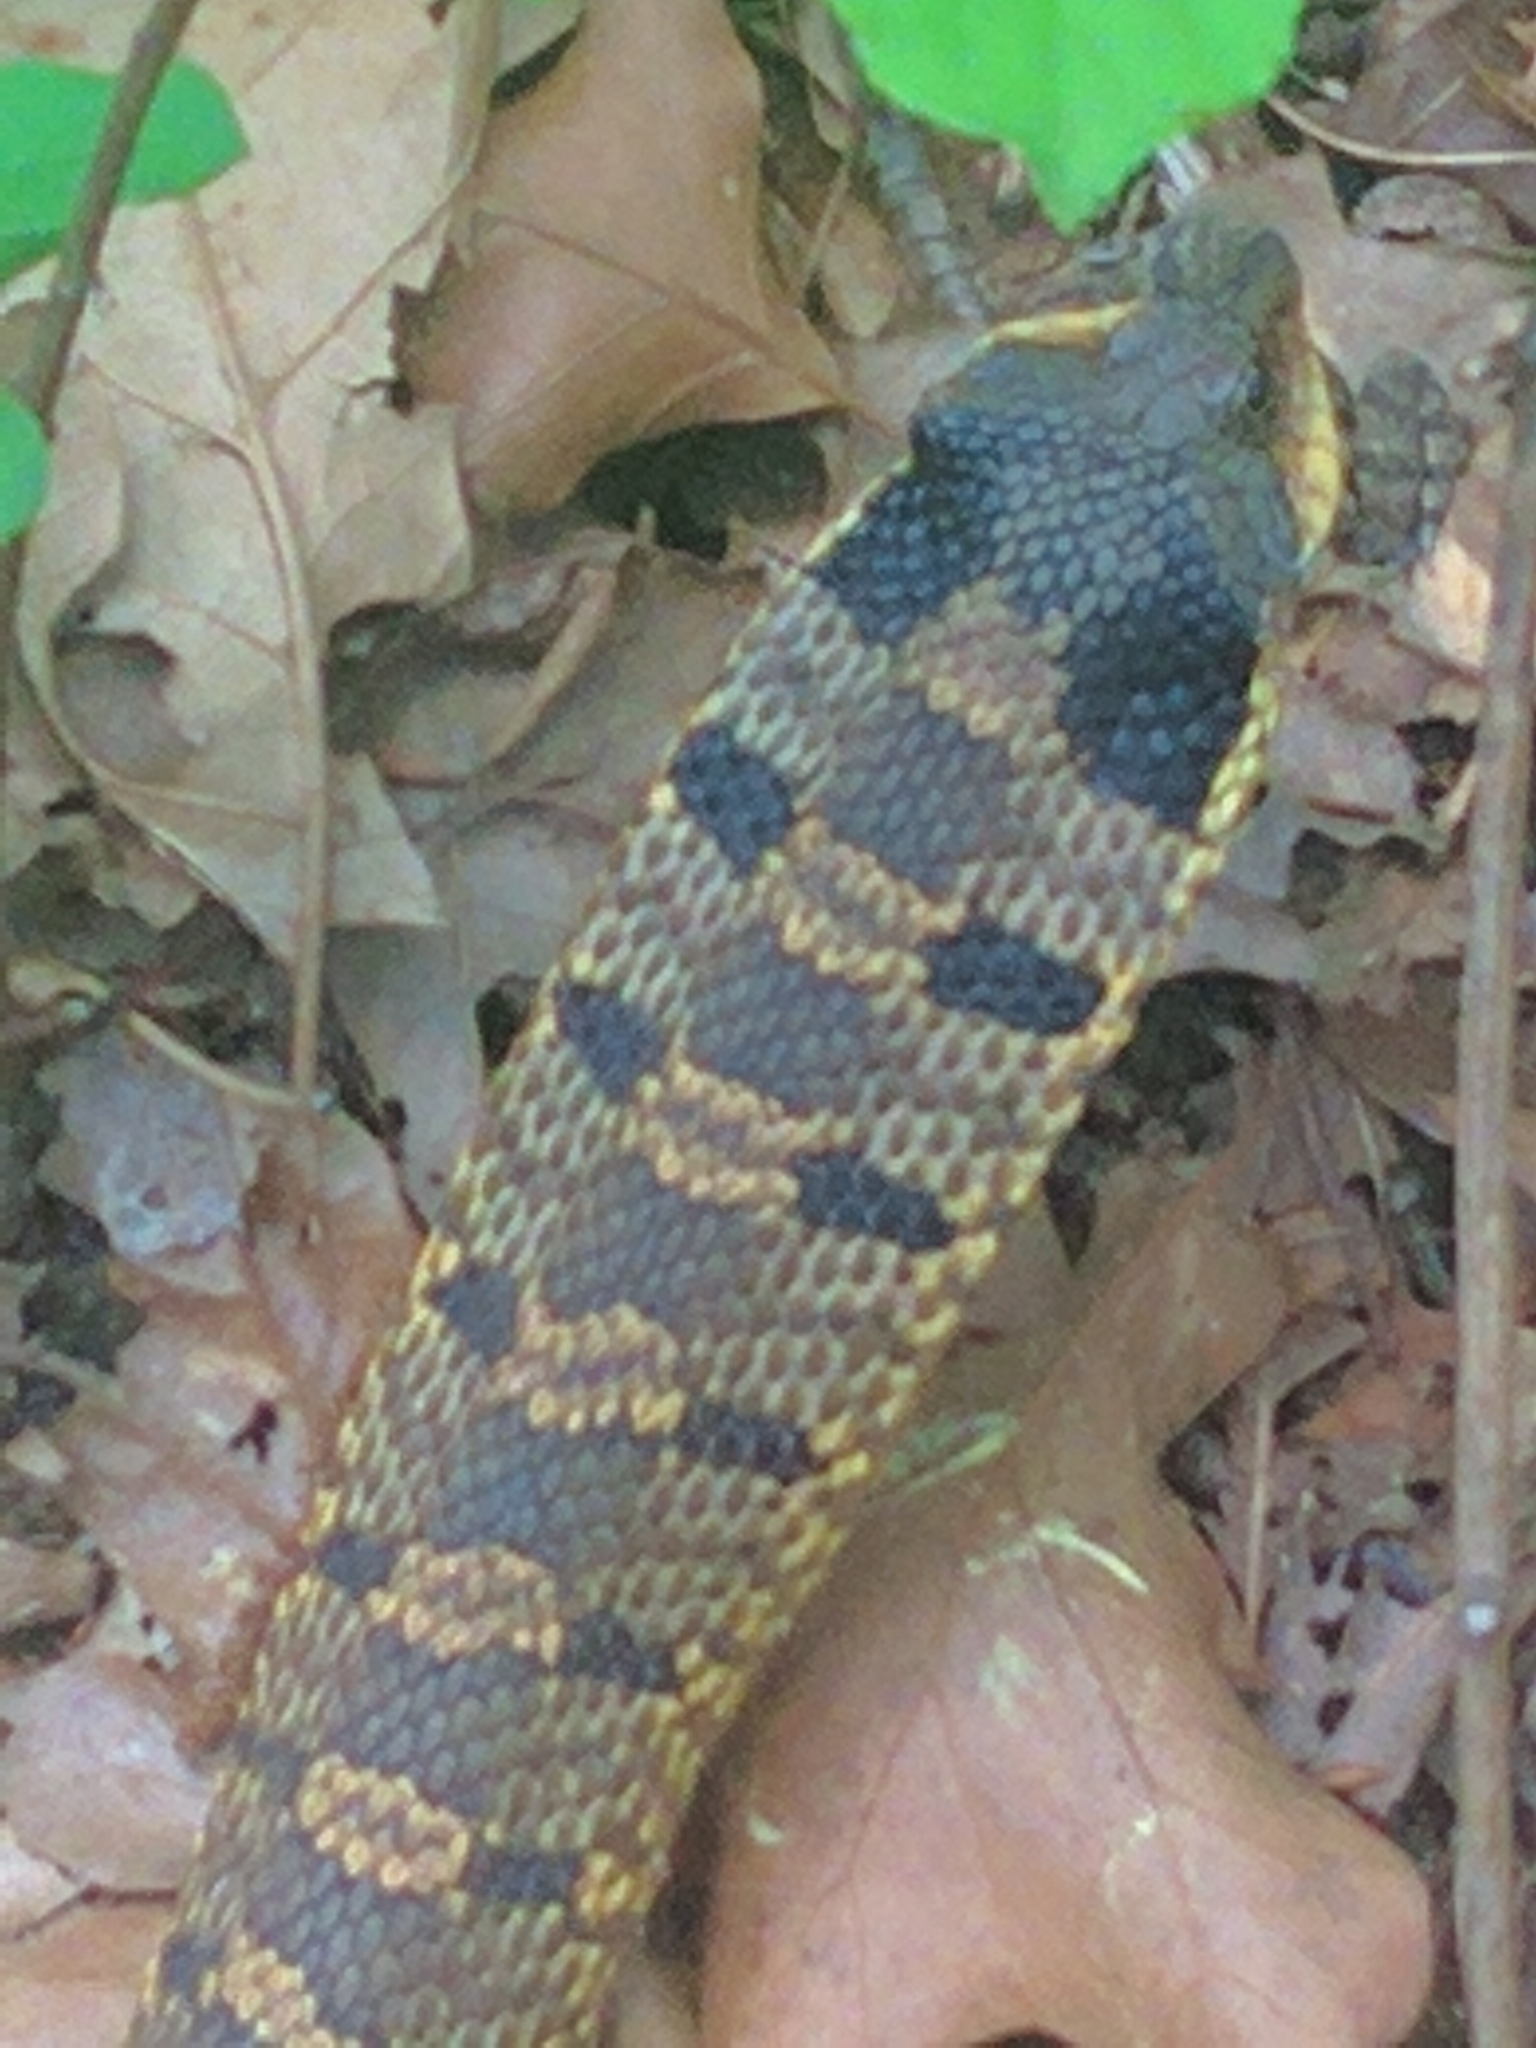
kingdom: Animalia
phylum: Chordata
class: Squamata
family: Colubridae
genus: Heterodon
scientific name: Heterodon platirhinos
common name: Eastern hognose snake
